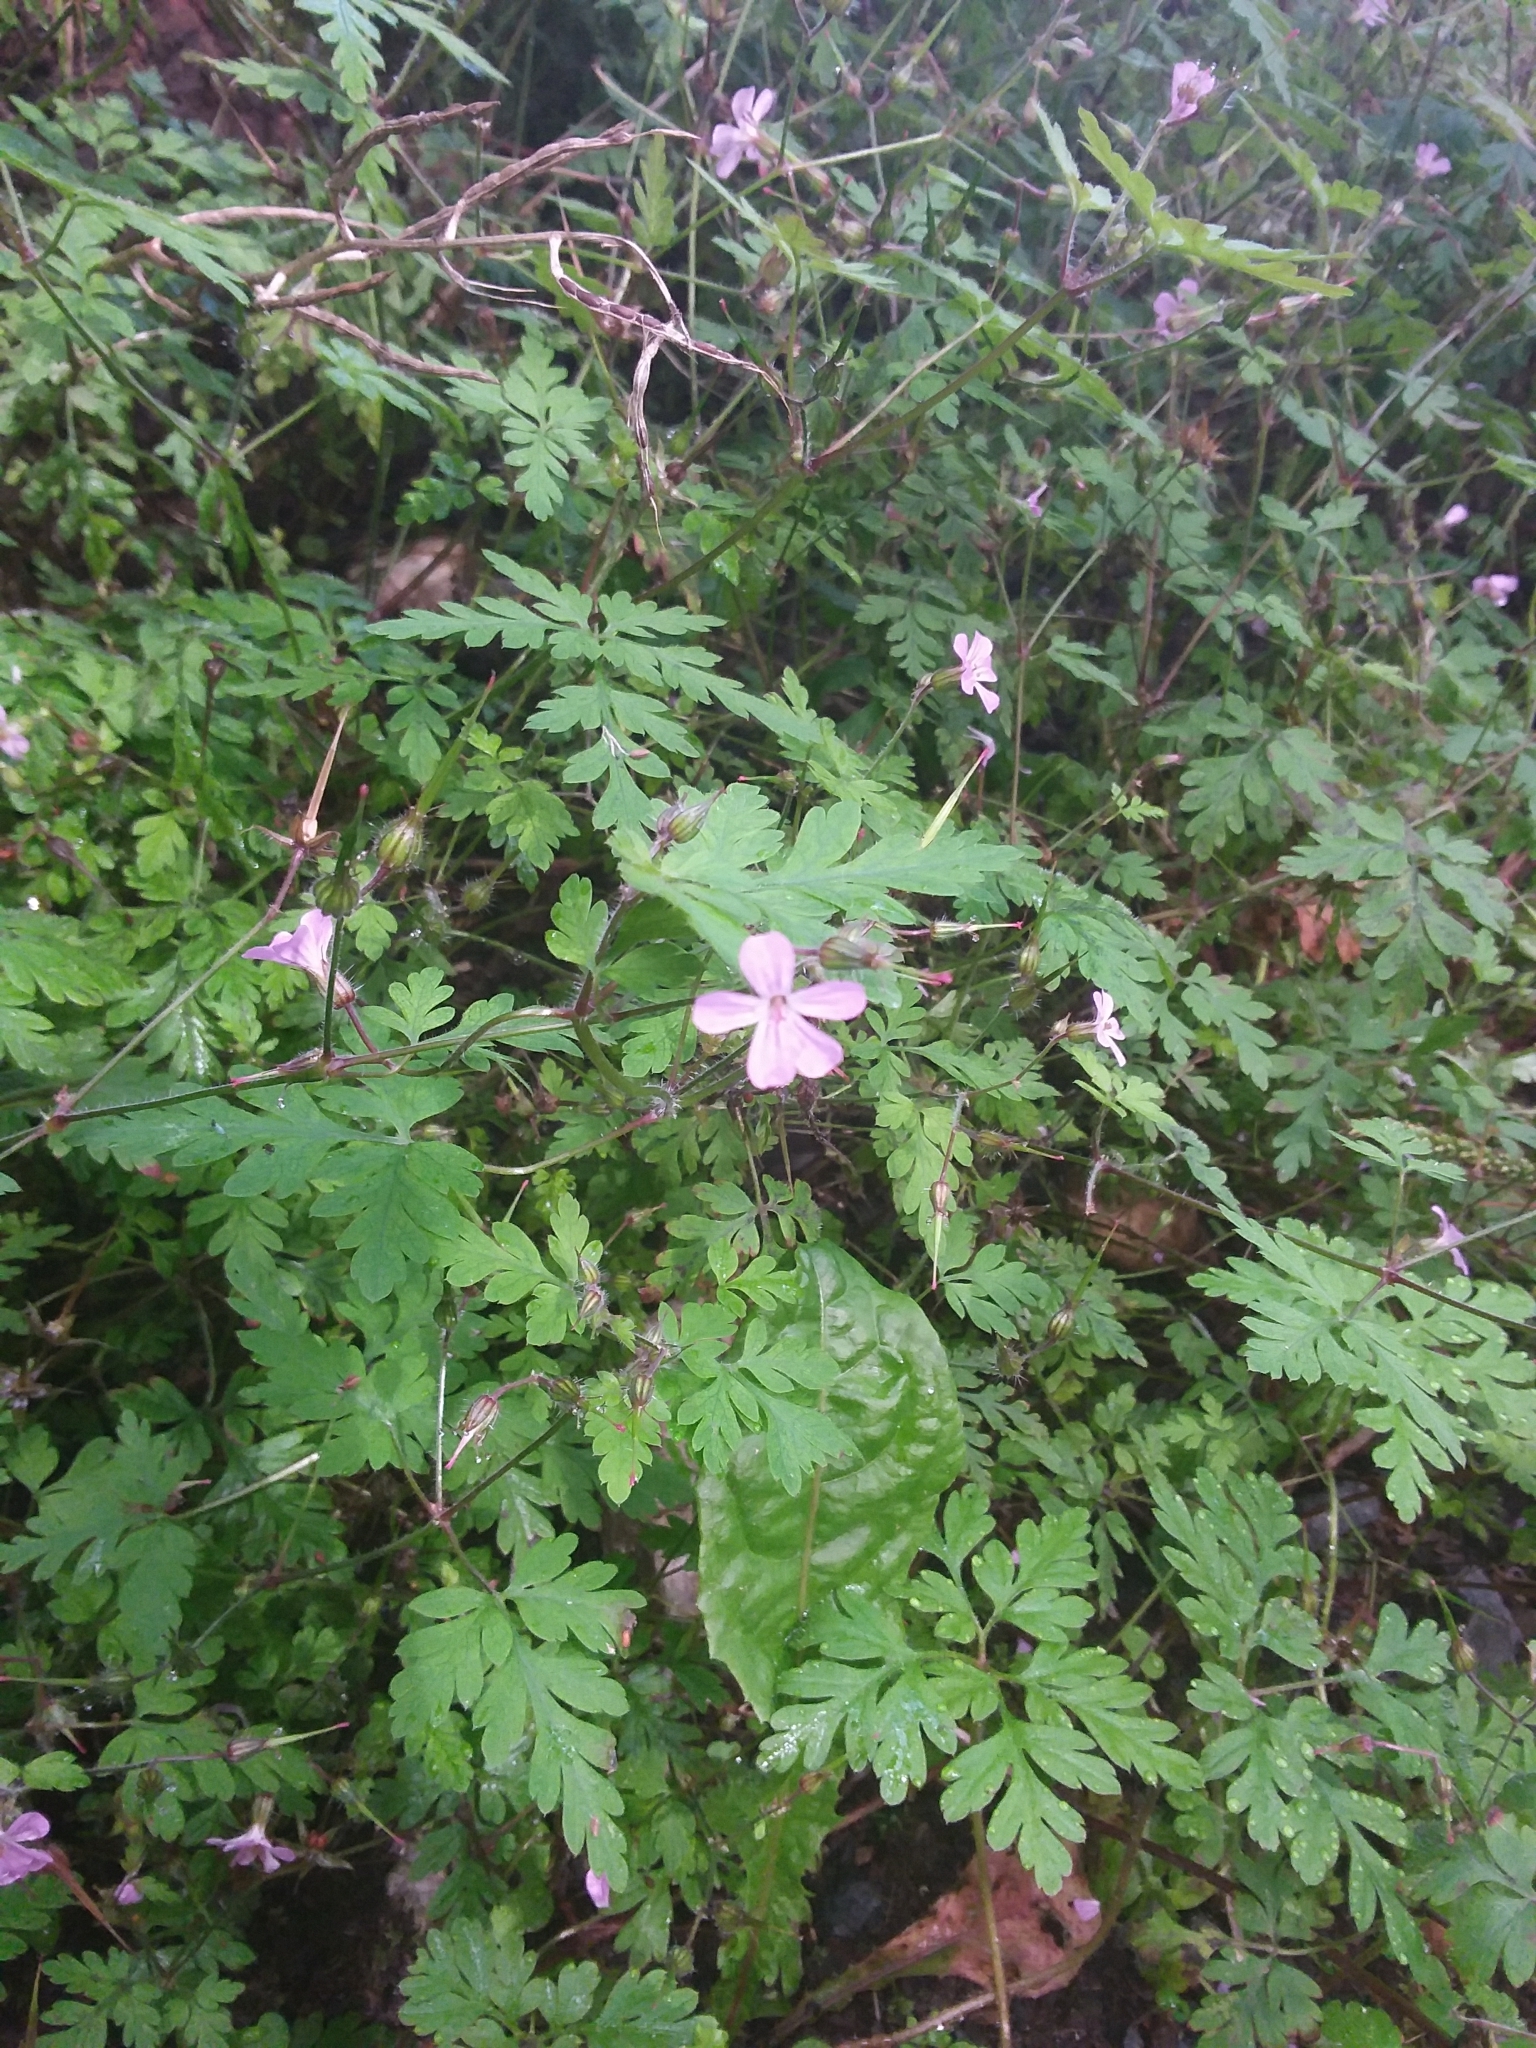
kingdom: Plantae
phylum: Tracheophyta
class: Magnoliopsida
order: Geraniales
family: Geraniaceae
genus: Geranium
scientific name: Geranium robertianum
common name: Herb-robert
